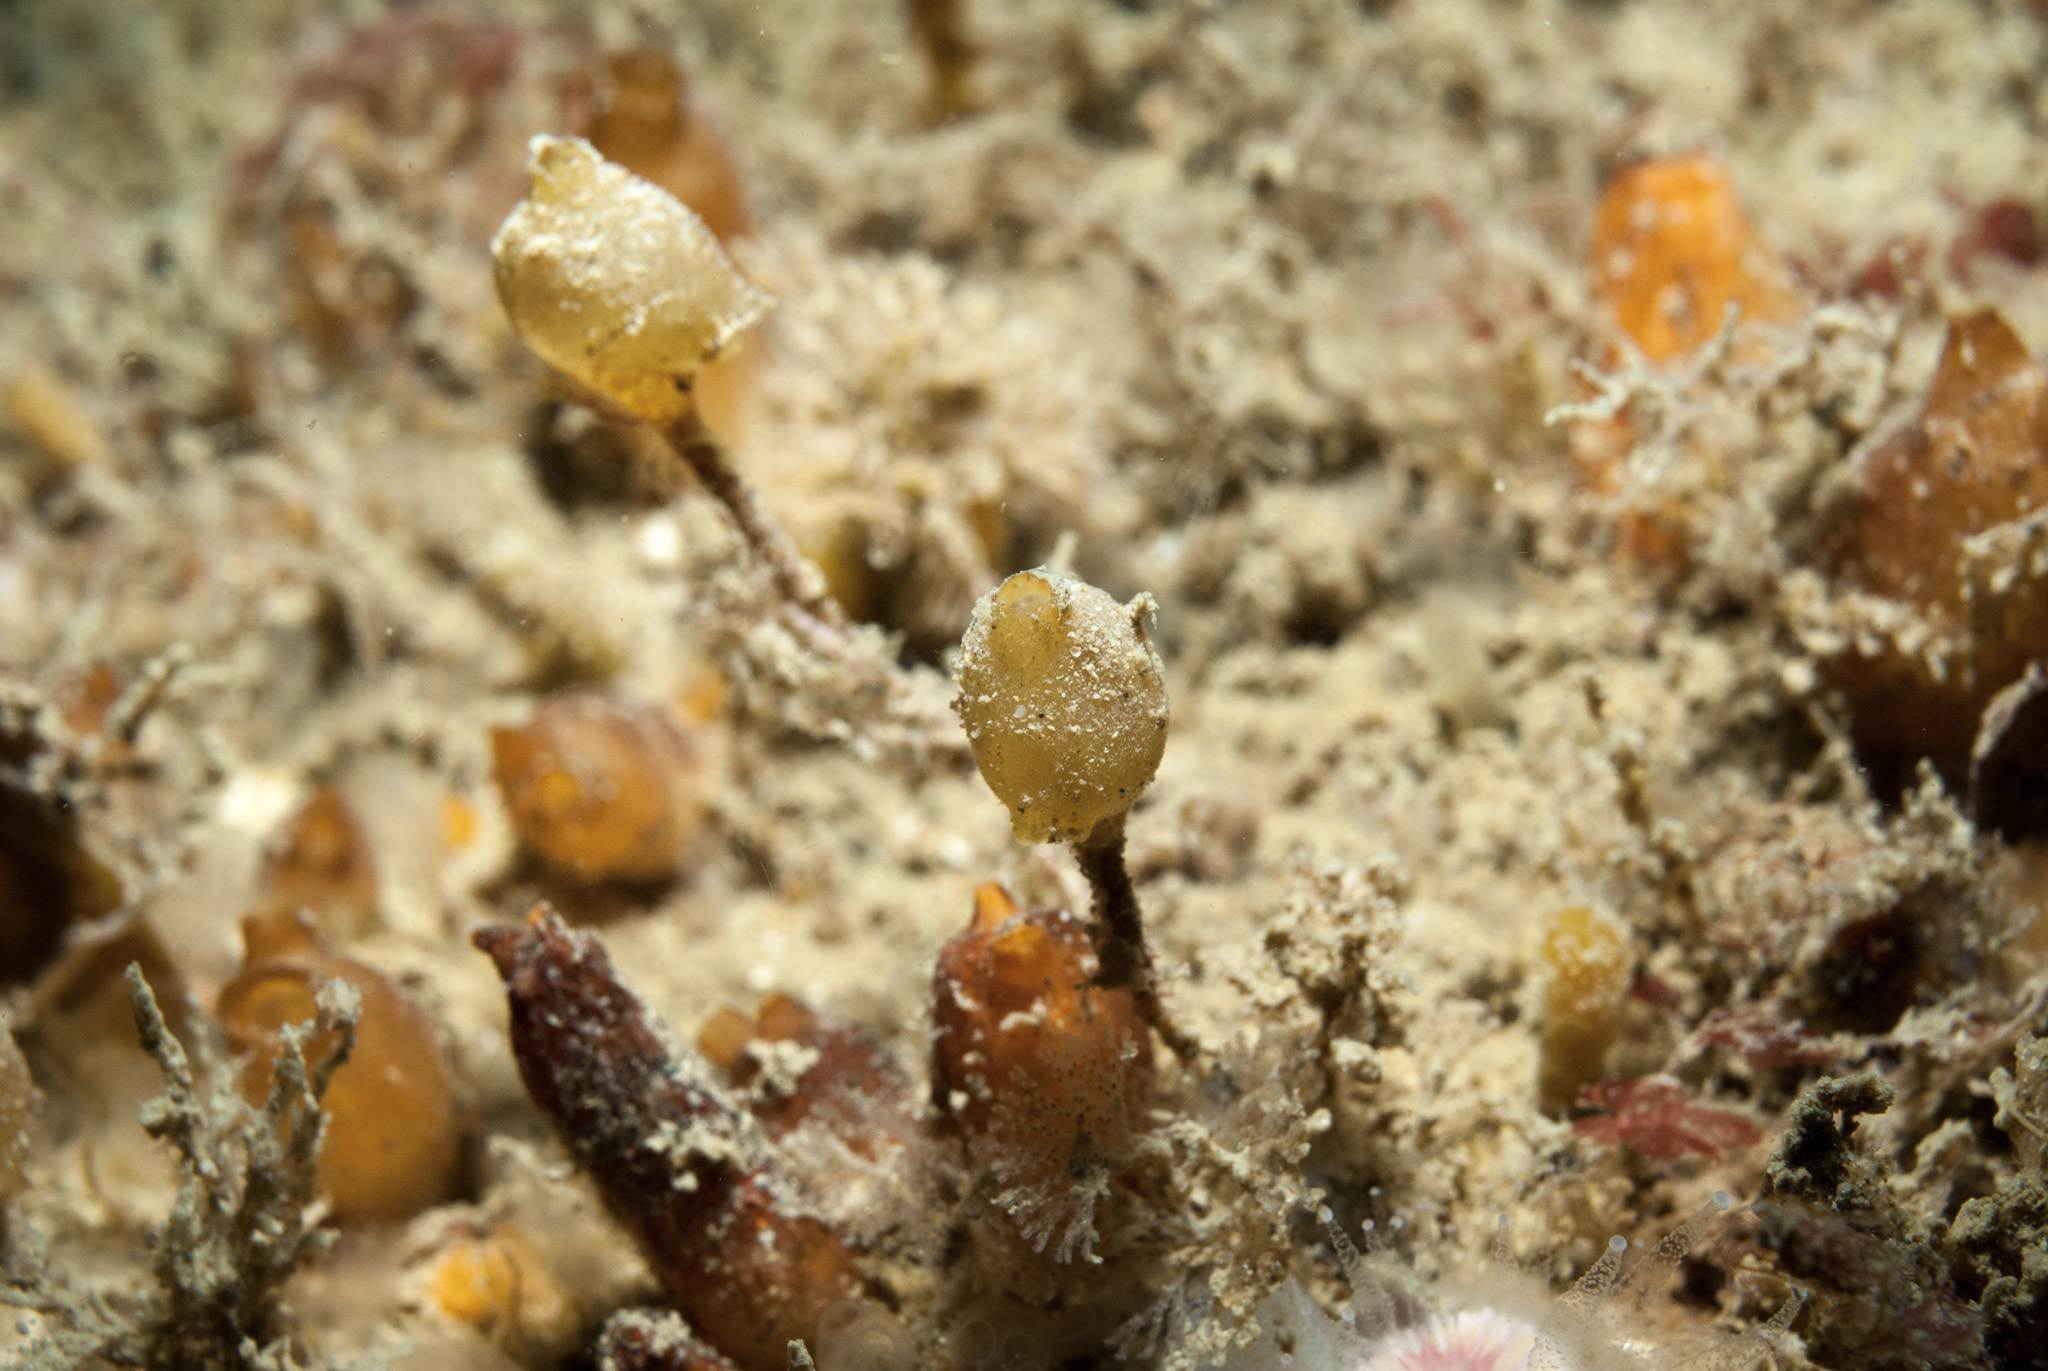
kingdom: Animalia
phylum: Chordata
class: Ascidiacea
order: Stolidobranchia
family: Pyuridae
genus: Bolteniopsis
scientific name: Bolteniopsis prenanti
